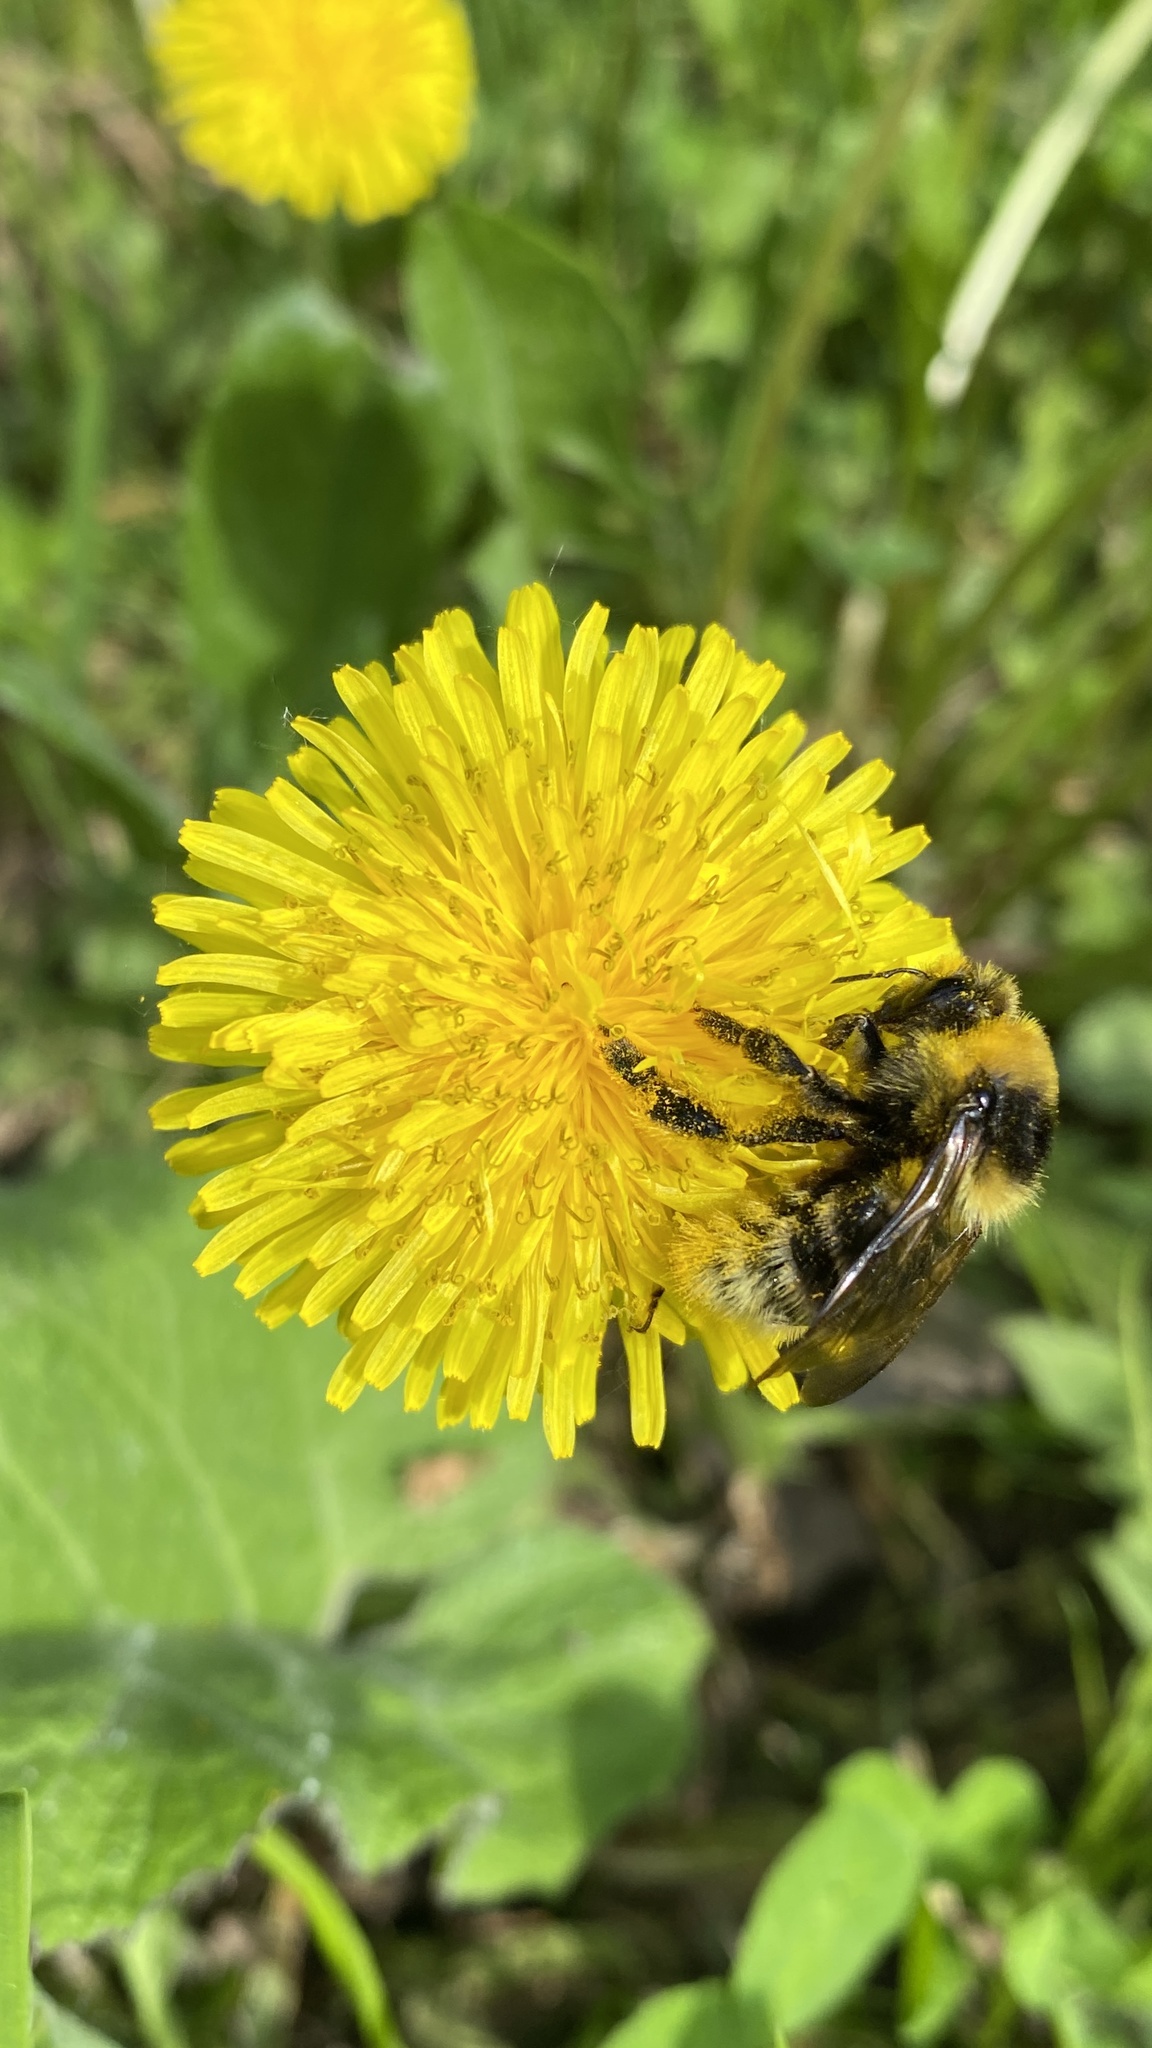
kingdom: Animalia
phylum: Arthropoda
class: Insecta
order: Hymenoptera
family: Apidae
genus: Bombus
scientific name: Bombus semenoviellus
